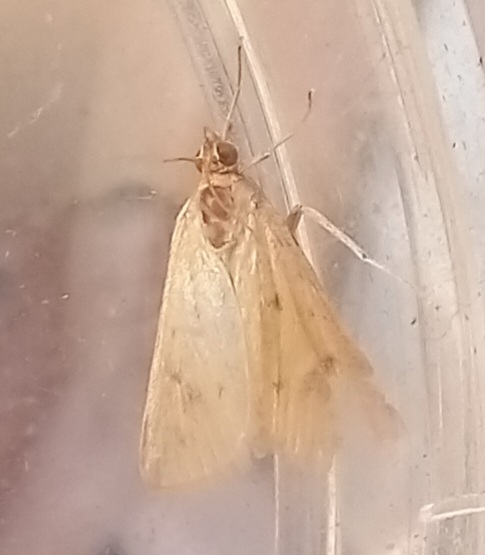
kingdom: Animalia
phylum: Arthropoda
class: Insecta
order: Lepidoptera
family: Crambidae
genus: Achyra
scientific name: Achyra nudalis
